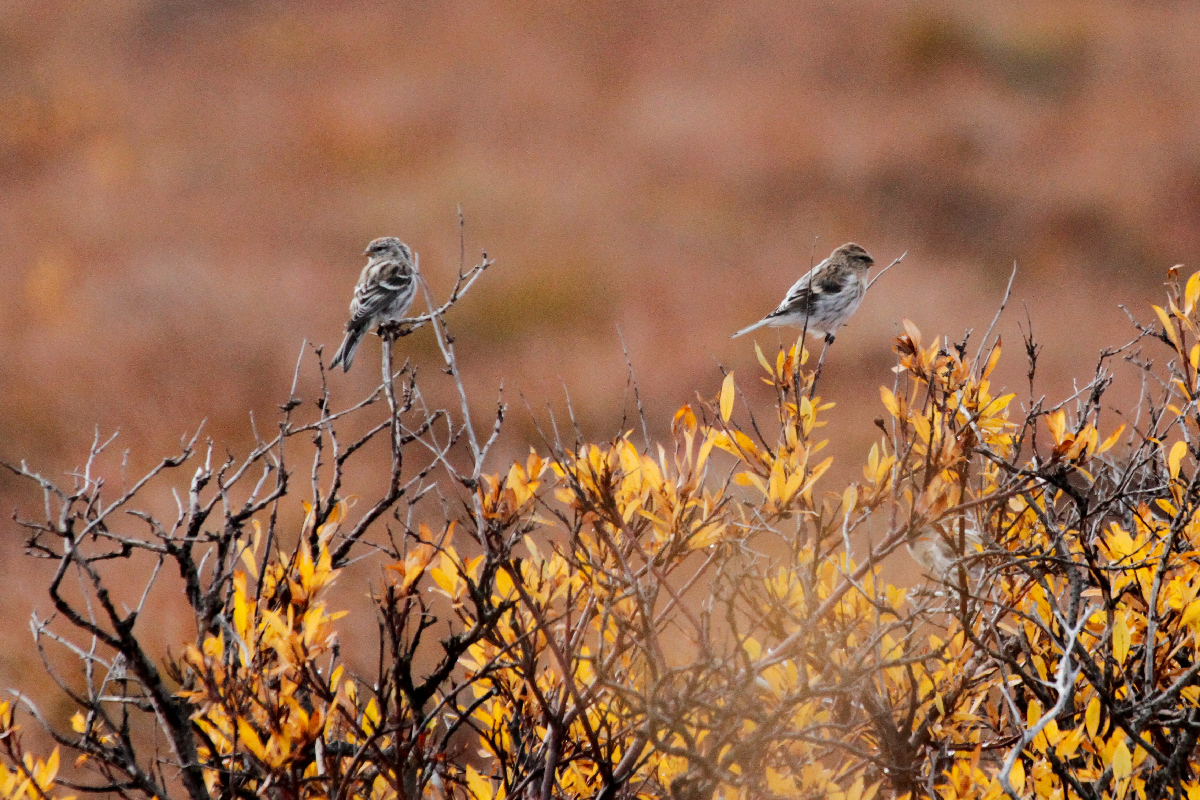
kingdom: Animalia
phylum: Chordata
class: Aves
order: Passeriformes
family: Fringillidae
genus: Acanthis
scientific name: Acanthis flammea
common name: Common redpoll
